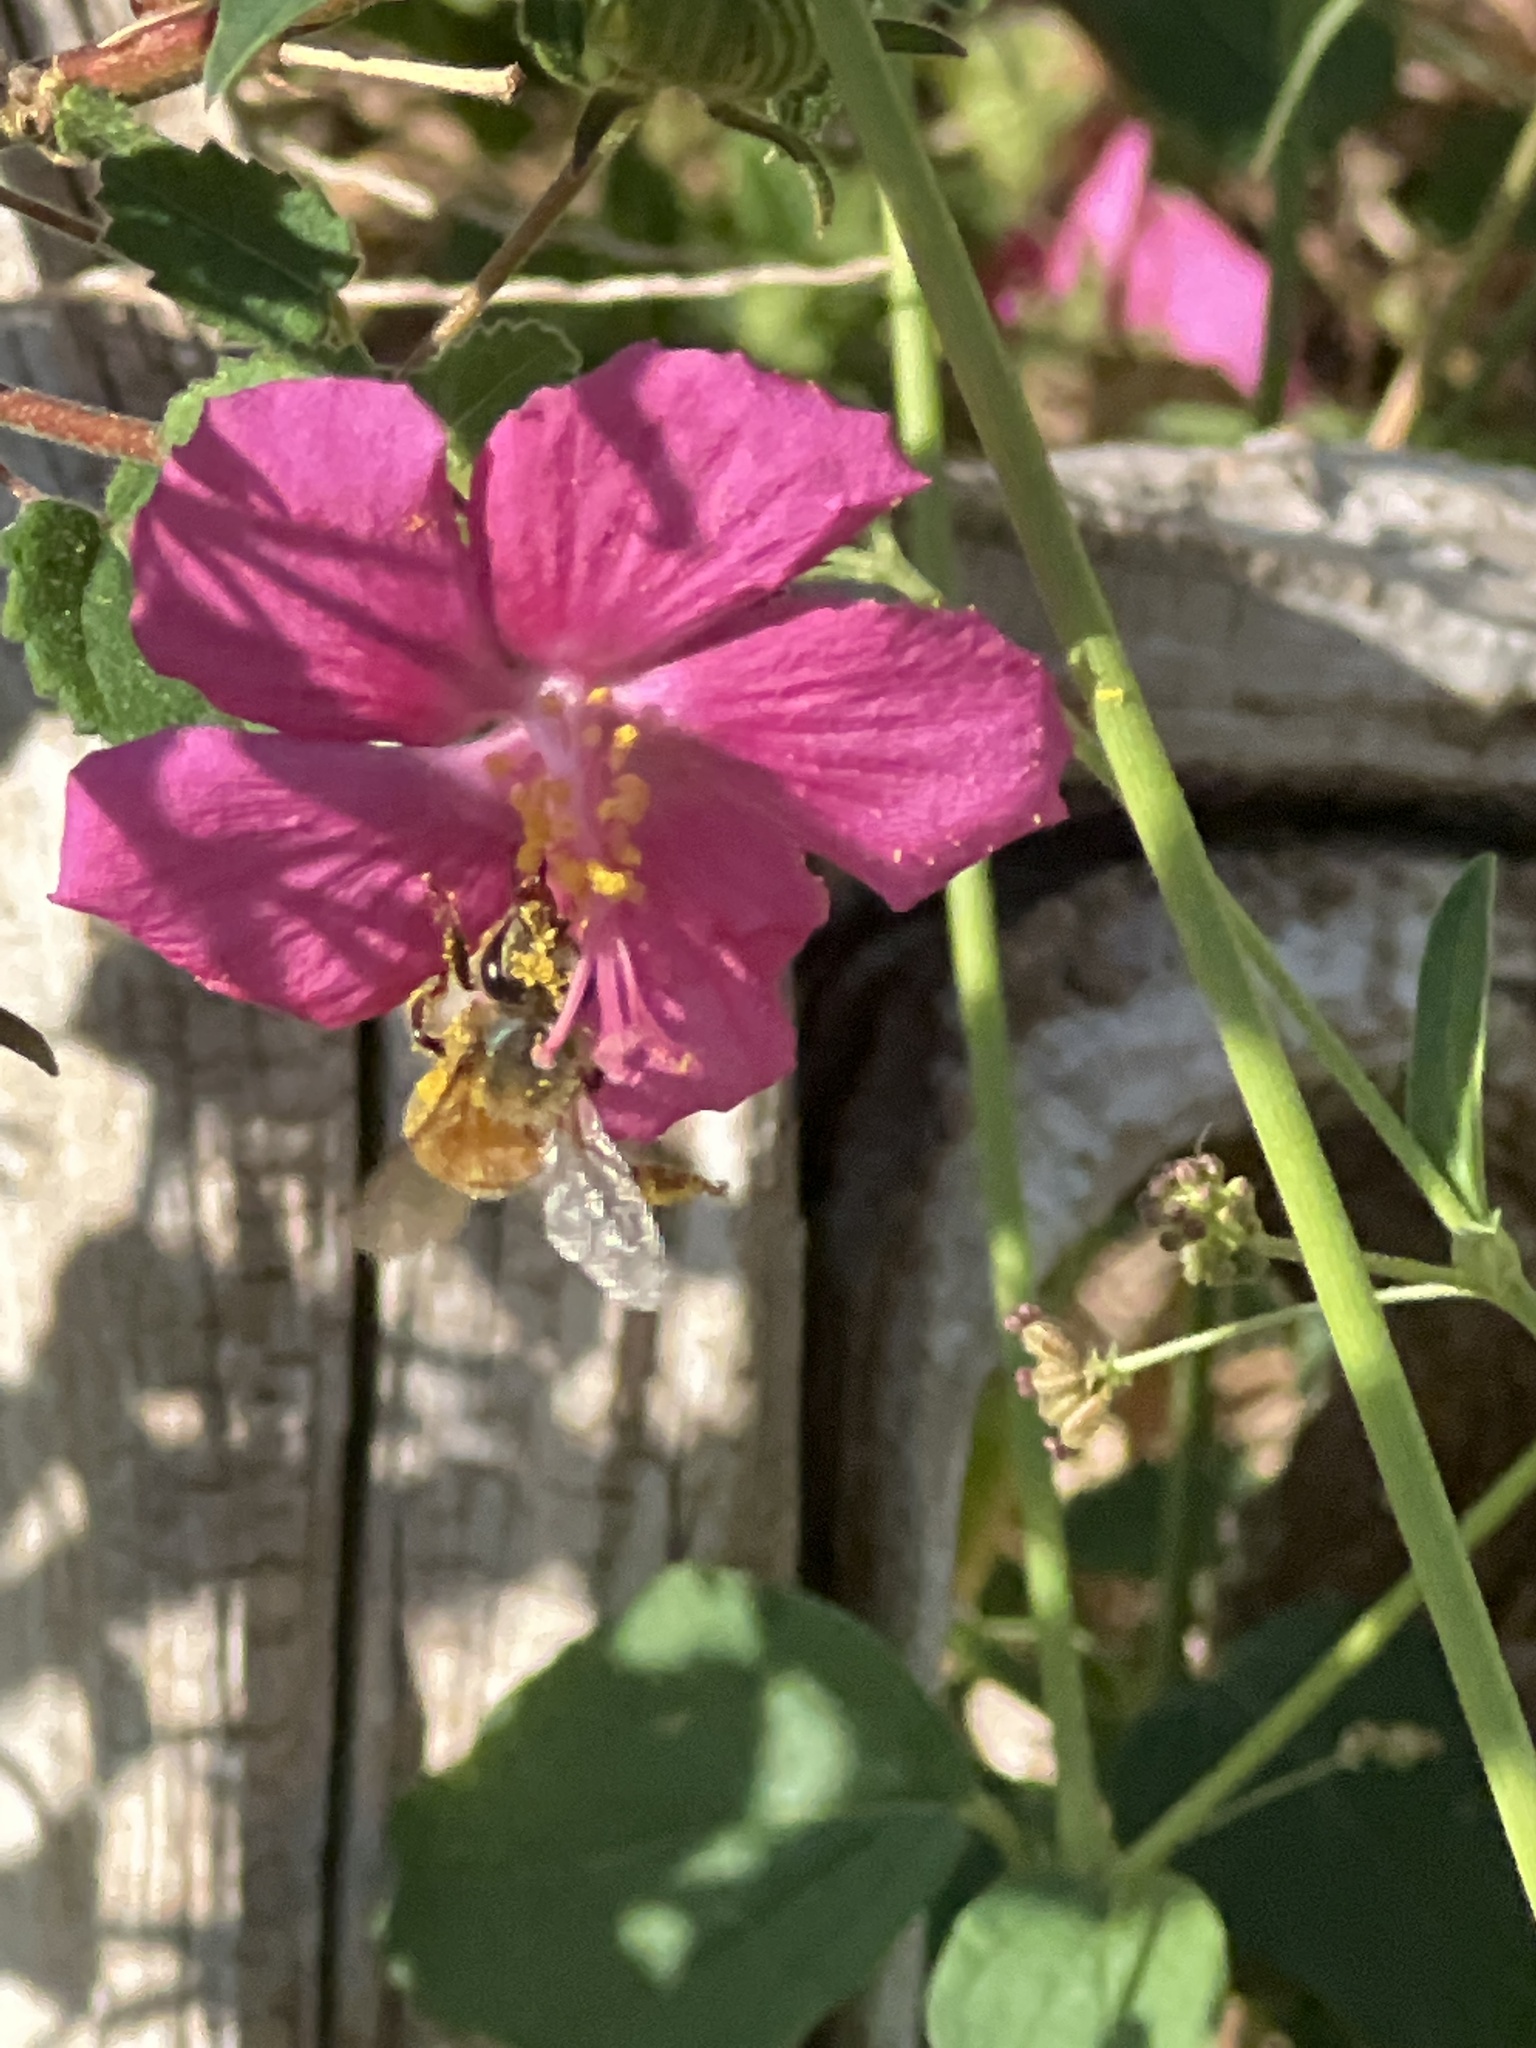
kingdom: Animalia
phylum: Arthropoda
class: Insecta
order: Hymenoptera
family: Apidae
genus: Apis
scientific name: Apis mellifera
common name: Honey bee
